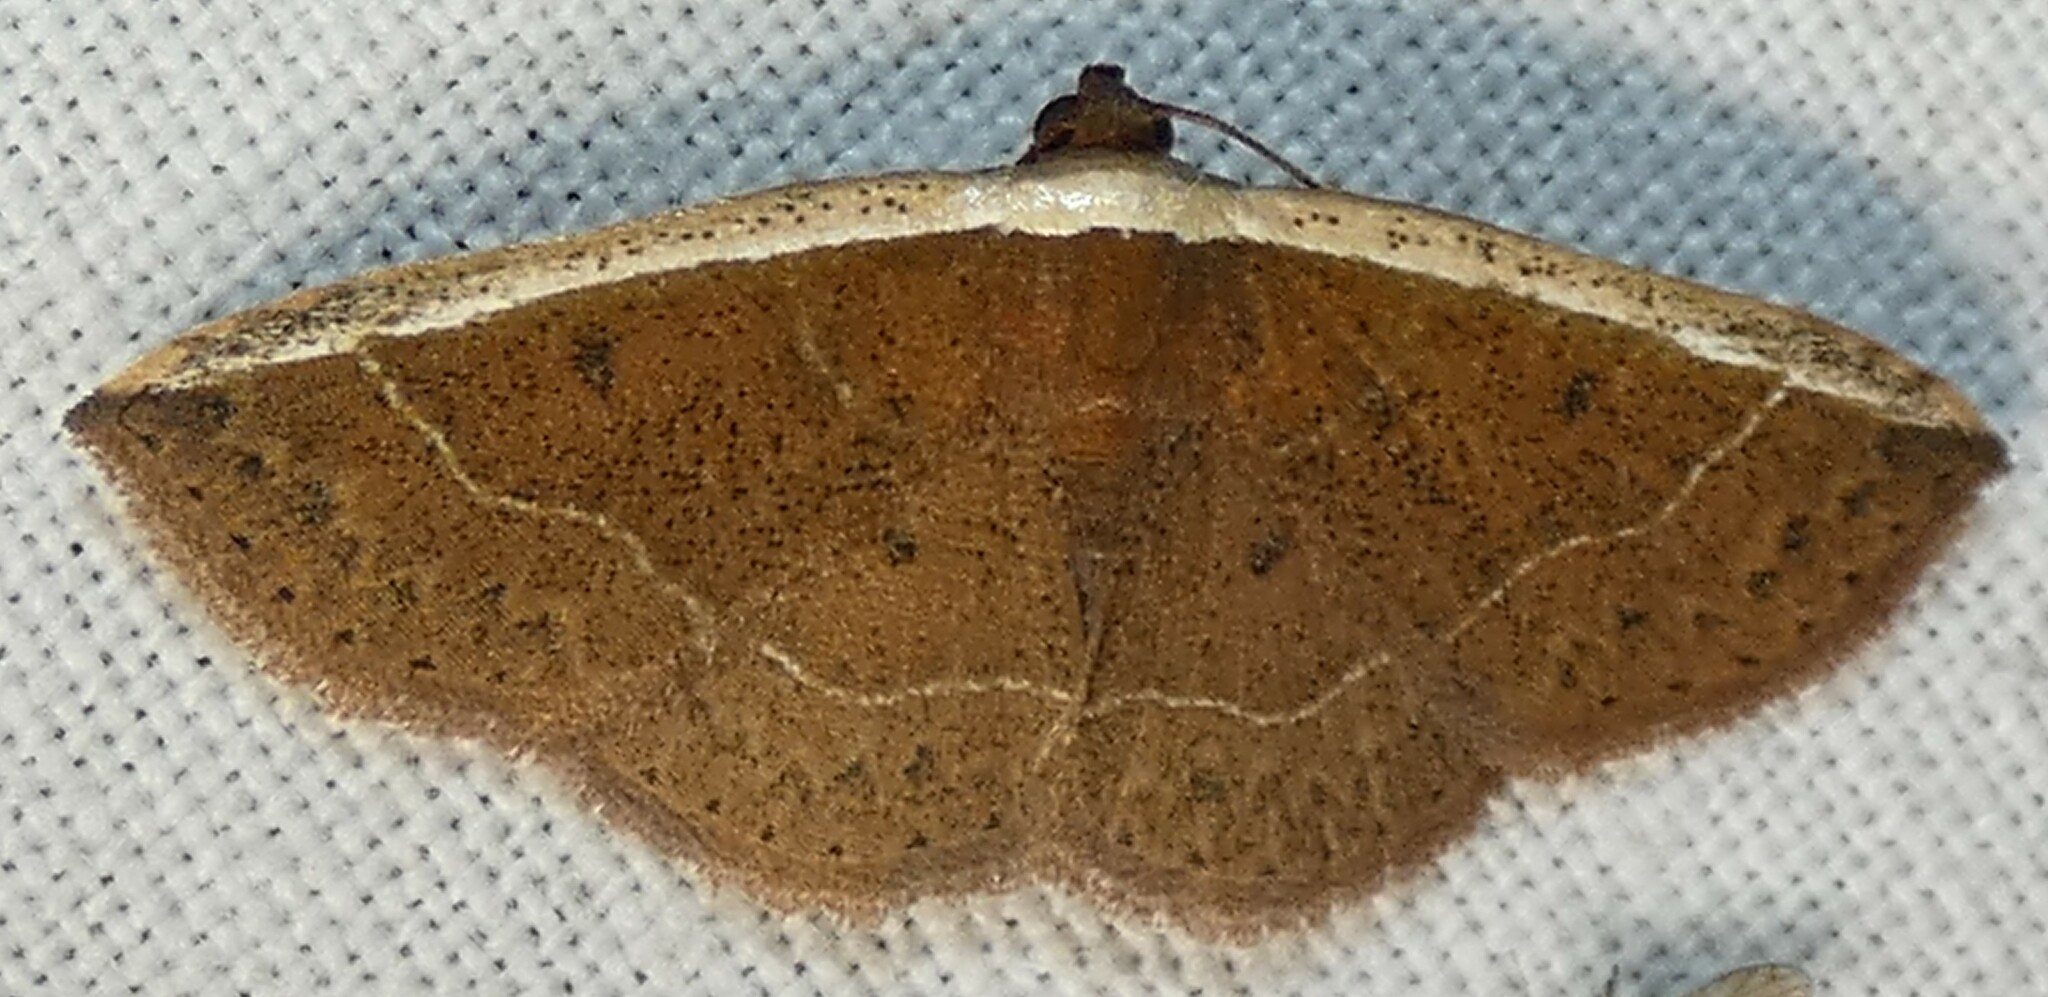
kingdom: Animalia
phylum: Arthropoda
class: Insecta
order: Lepidoptera
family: Noctuidae
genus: Ozarba
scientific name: Ozarba albocostaliata
